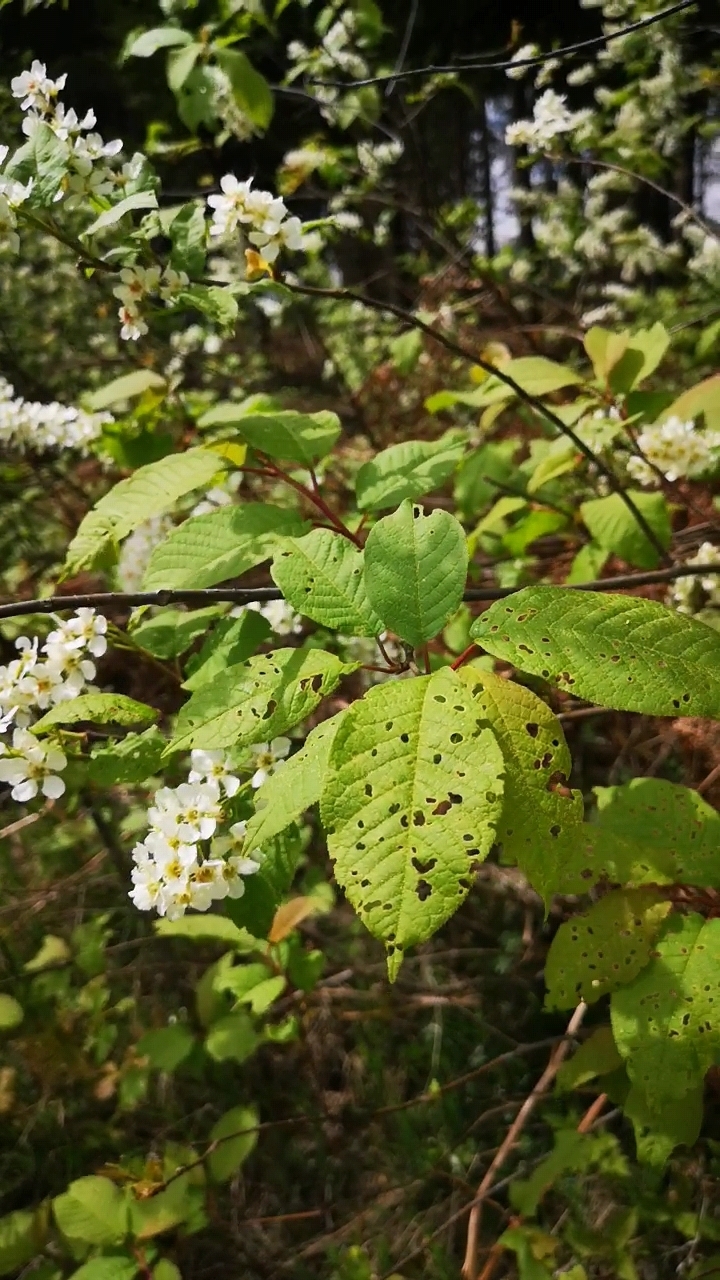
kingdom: Plantae
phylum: Tracheophyta
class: Magnoliopsida
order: Rosales
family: Rosaceae
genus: Prunus
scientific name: Prunus padus
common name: Bird cherry
